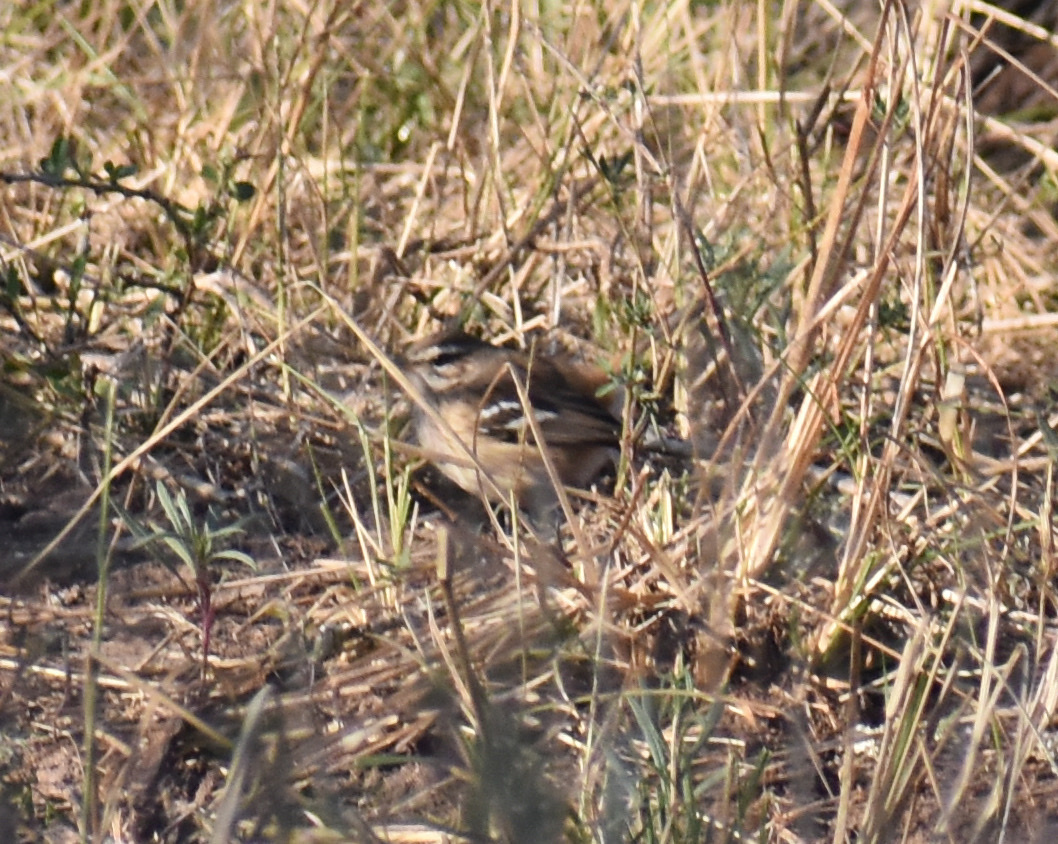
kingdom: Animalia
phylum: Chordata
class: Aves
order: Passeriformes
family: Muscicapidae
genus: Erythropygia
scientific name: Erythropygia leucophrys
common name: White-browed scrub robin
